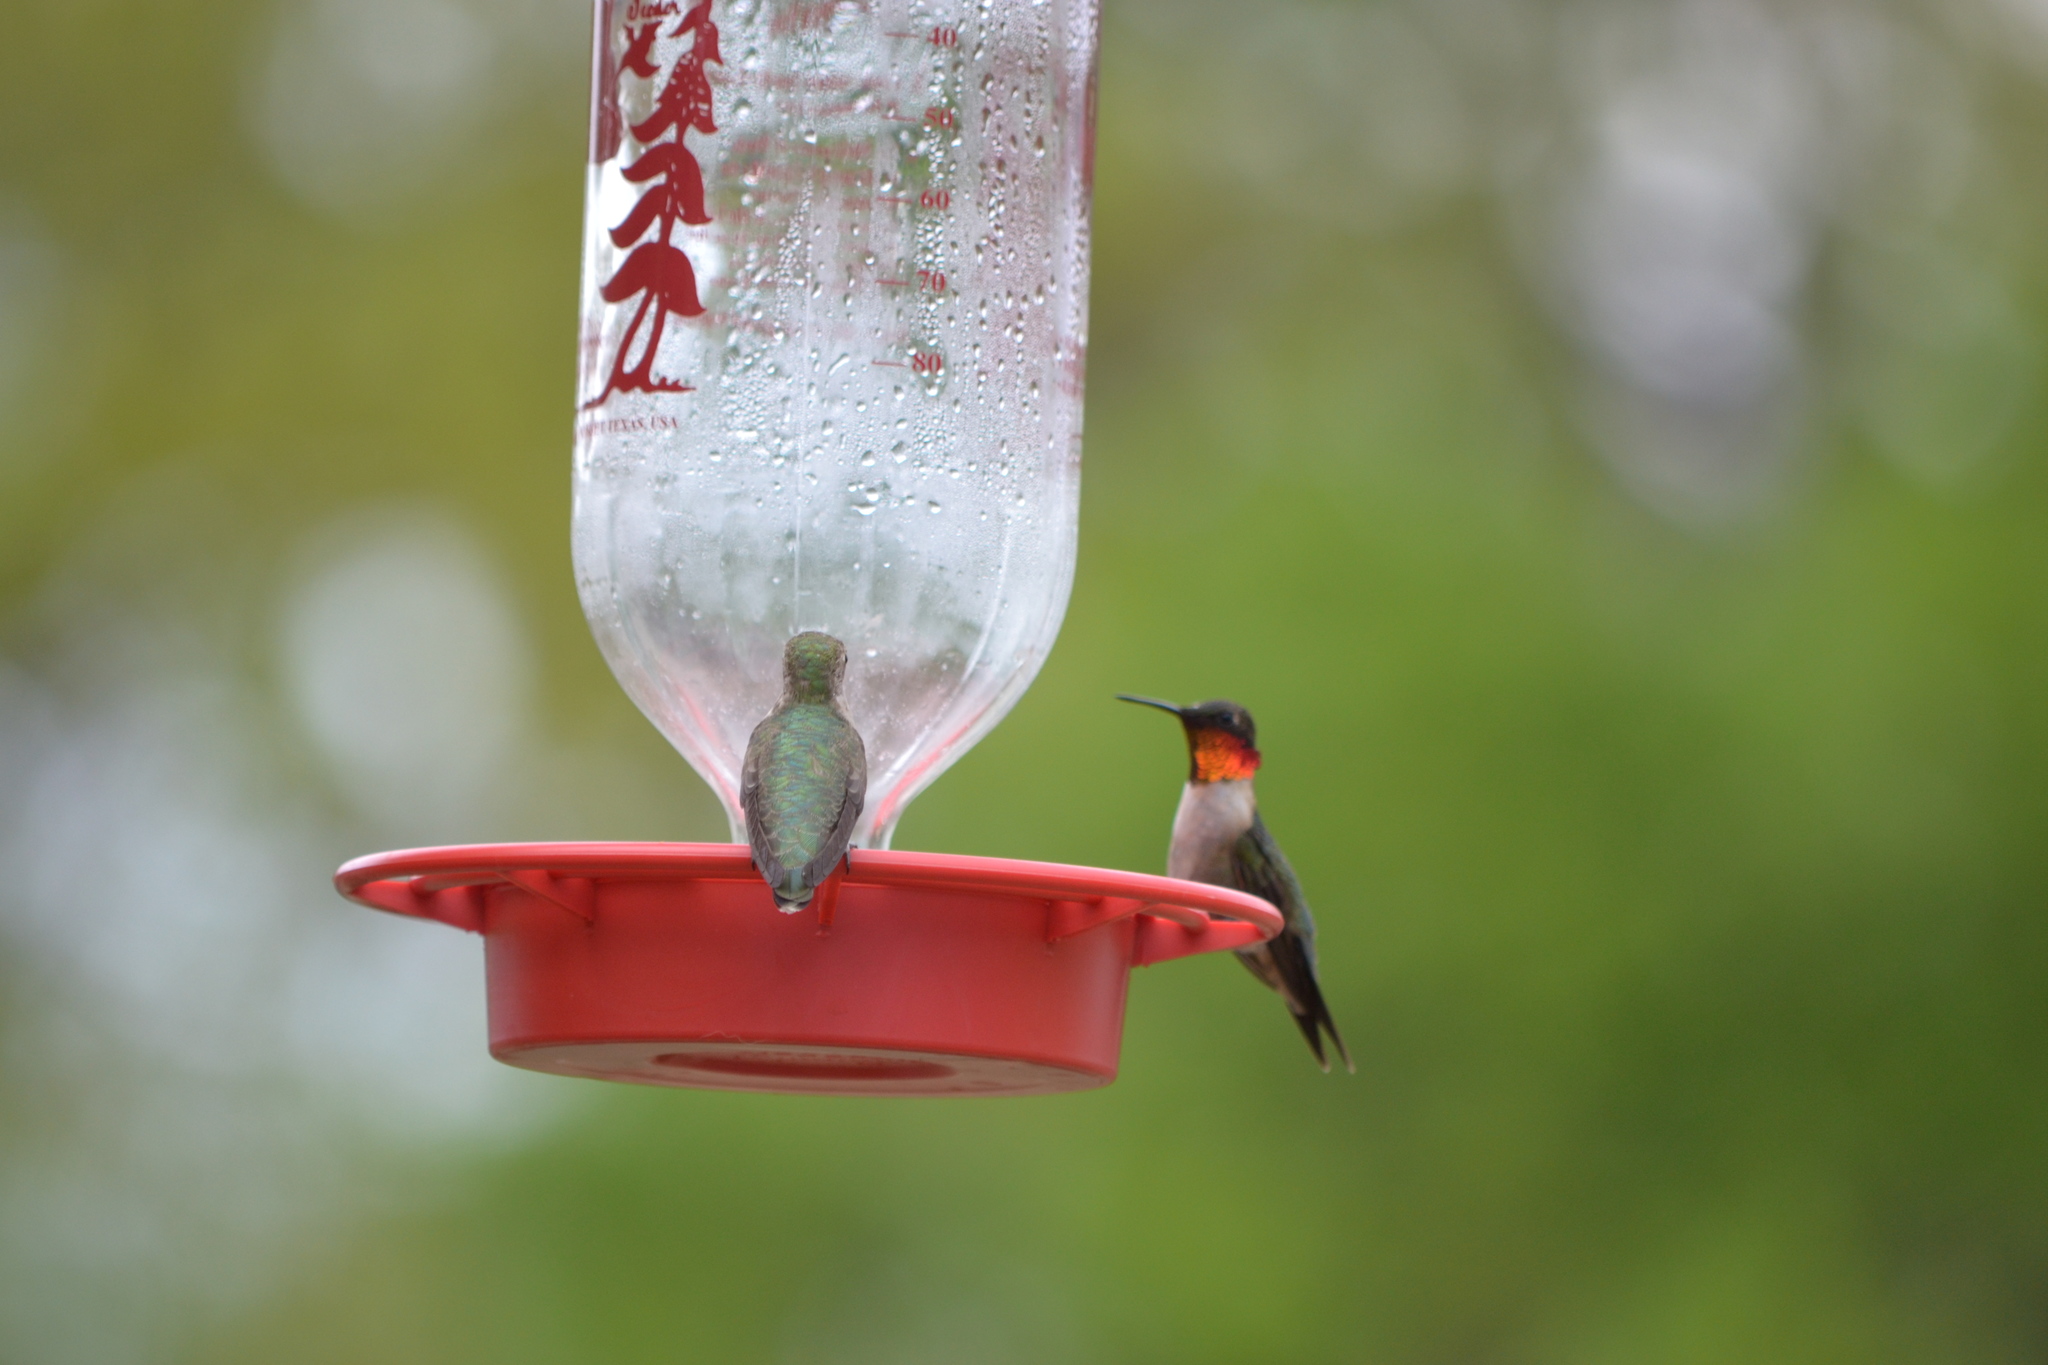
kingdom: Animalia
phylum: Chordata
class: Aves
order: Apodiformes
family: Trochilidae
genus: Archilochus
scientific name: Archilochus colubris
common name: Ruby-throated hummingbird
